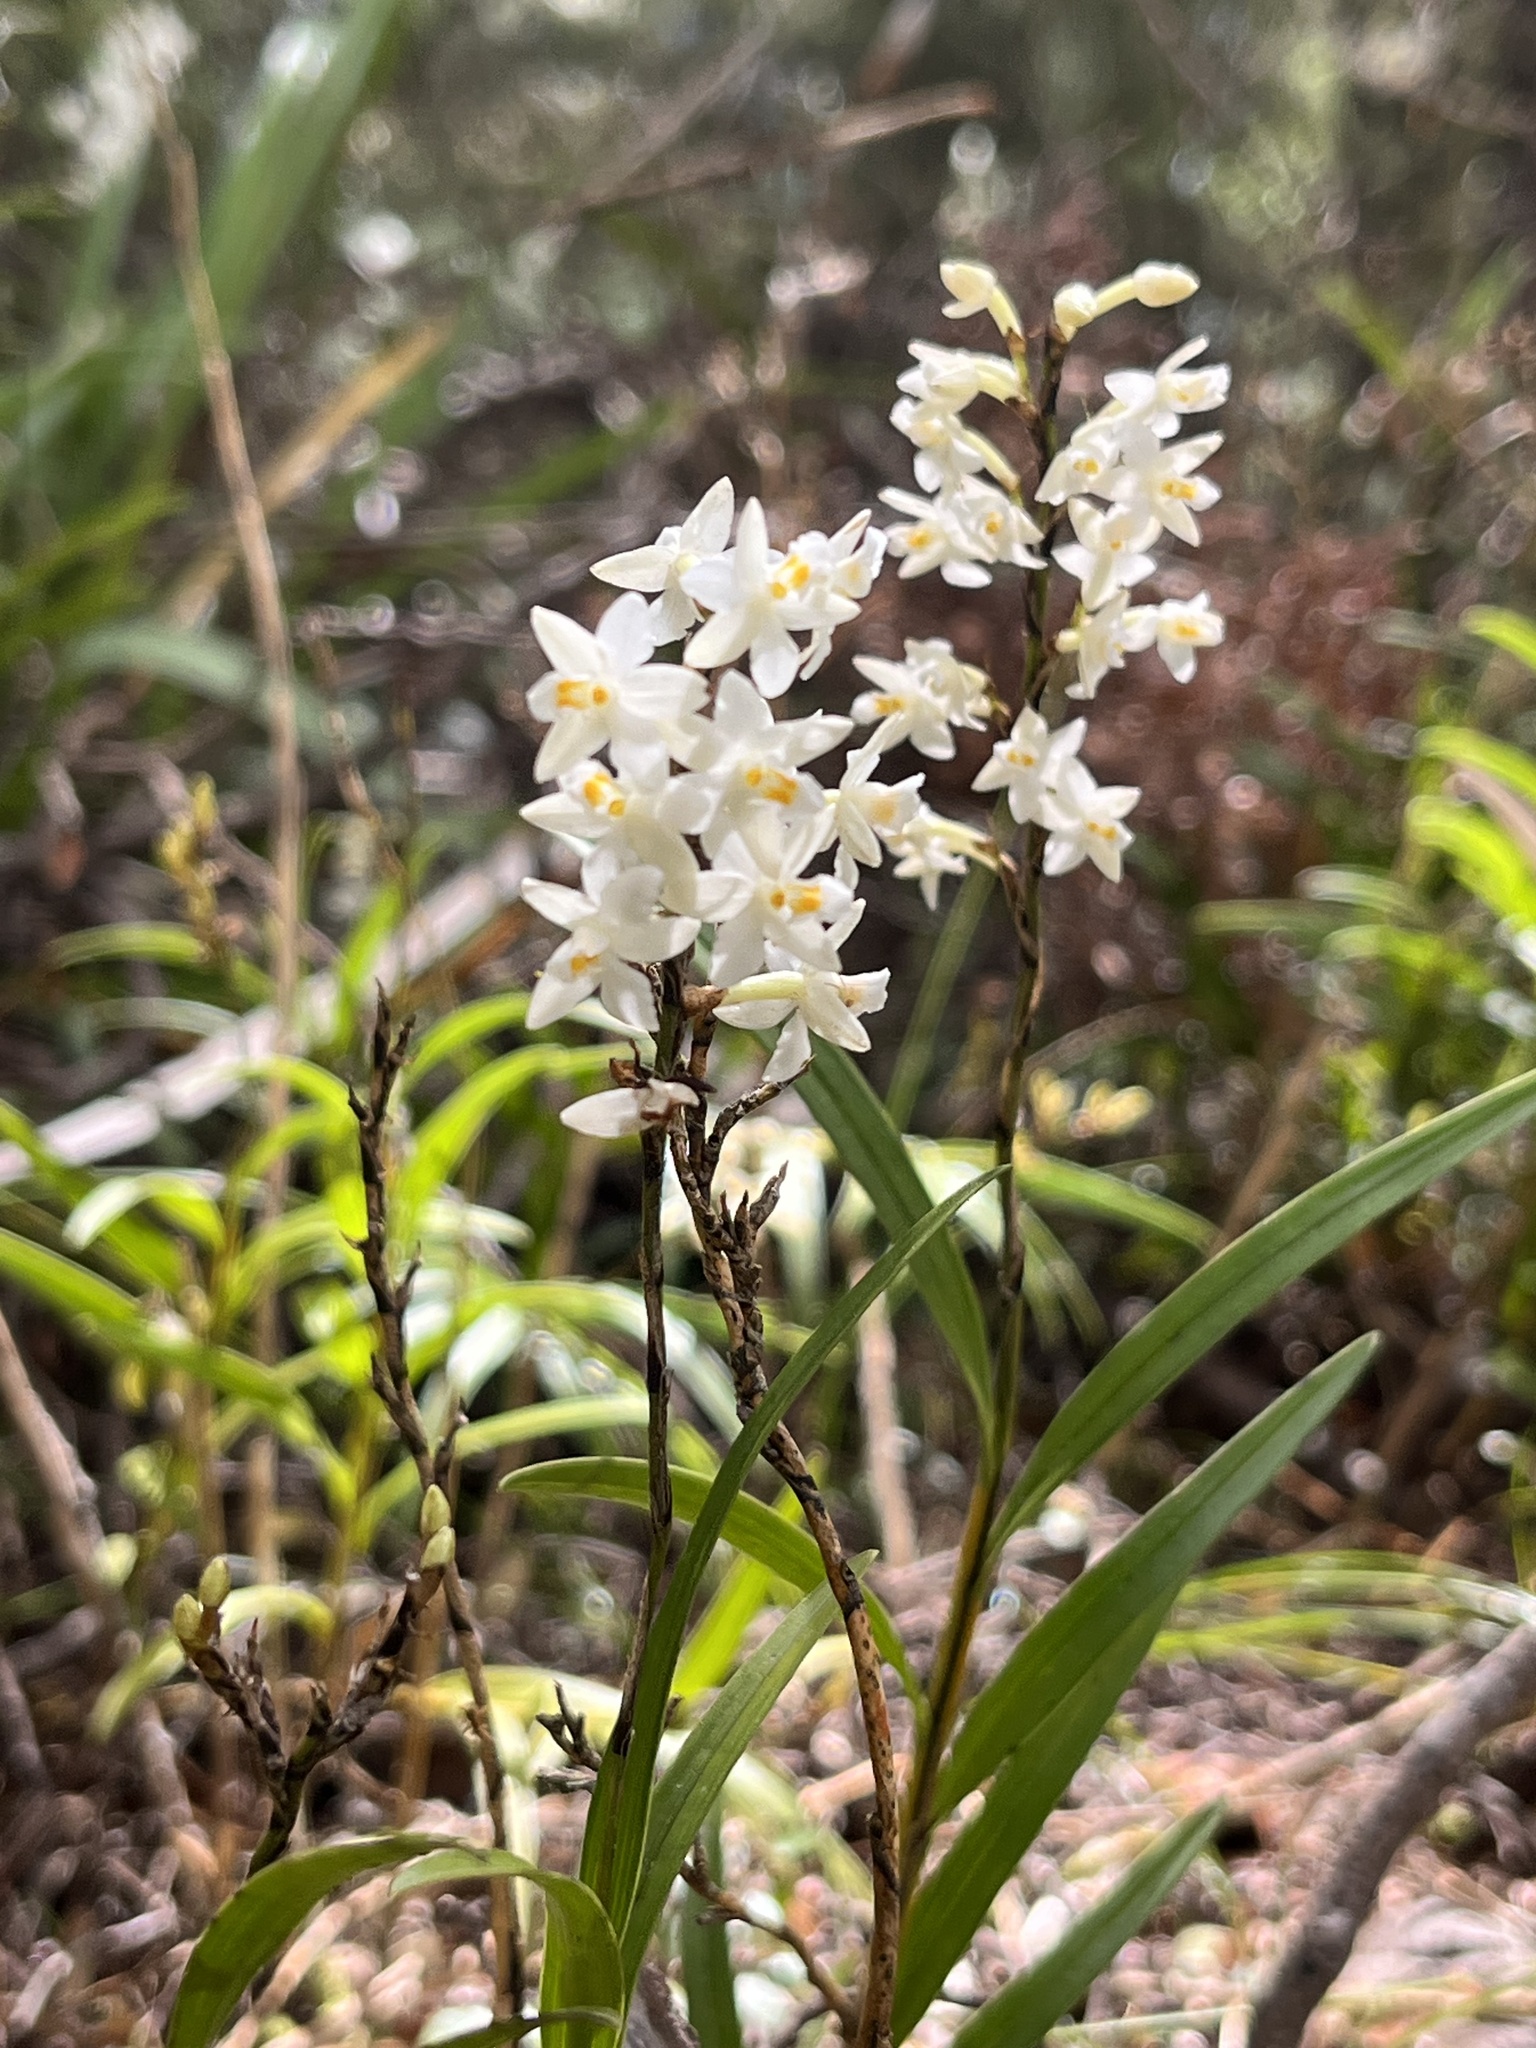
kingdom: Plantae
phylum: Tracheophyta
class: Liliopsida
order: Asparagales
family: Orchidaceae
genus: Earina
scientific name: Earina autumnalis
